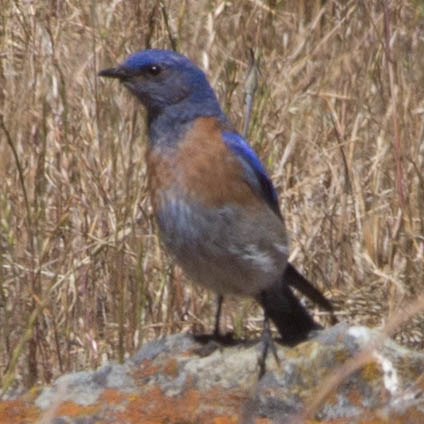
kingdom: Animalia
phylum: Chordata
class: Aves
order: Passeriformes
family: Turdidae
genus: Sialia
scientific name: Sialia mexicana
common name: Western bluebird
